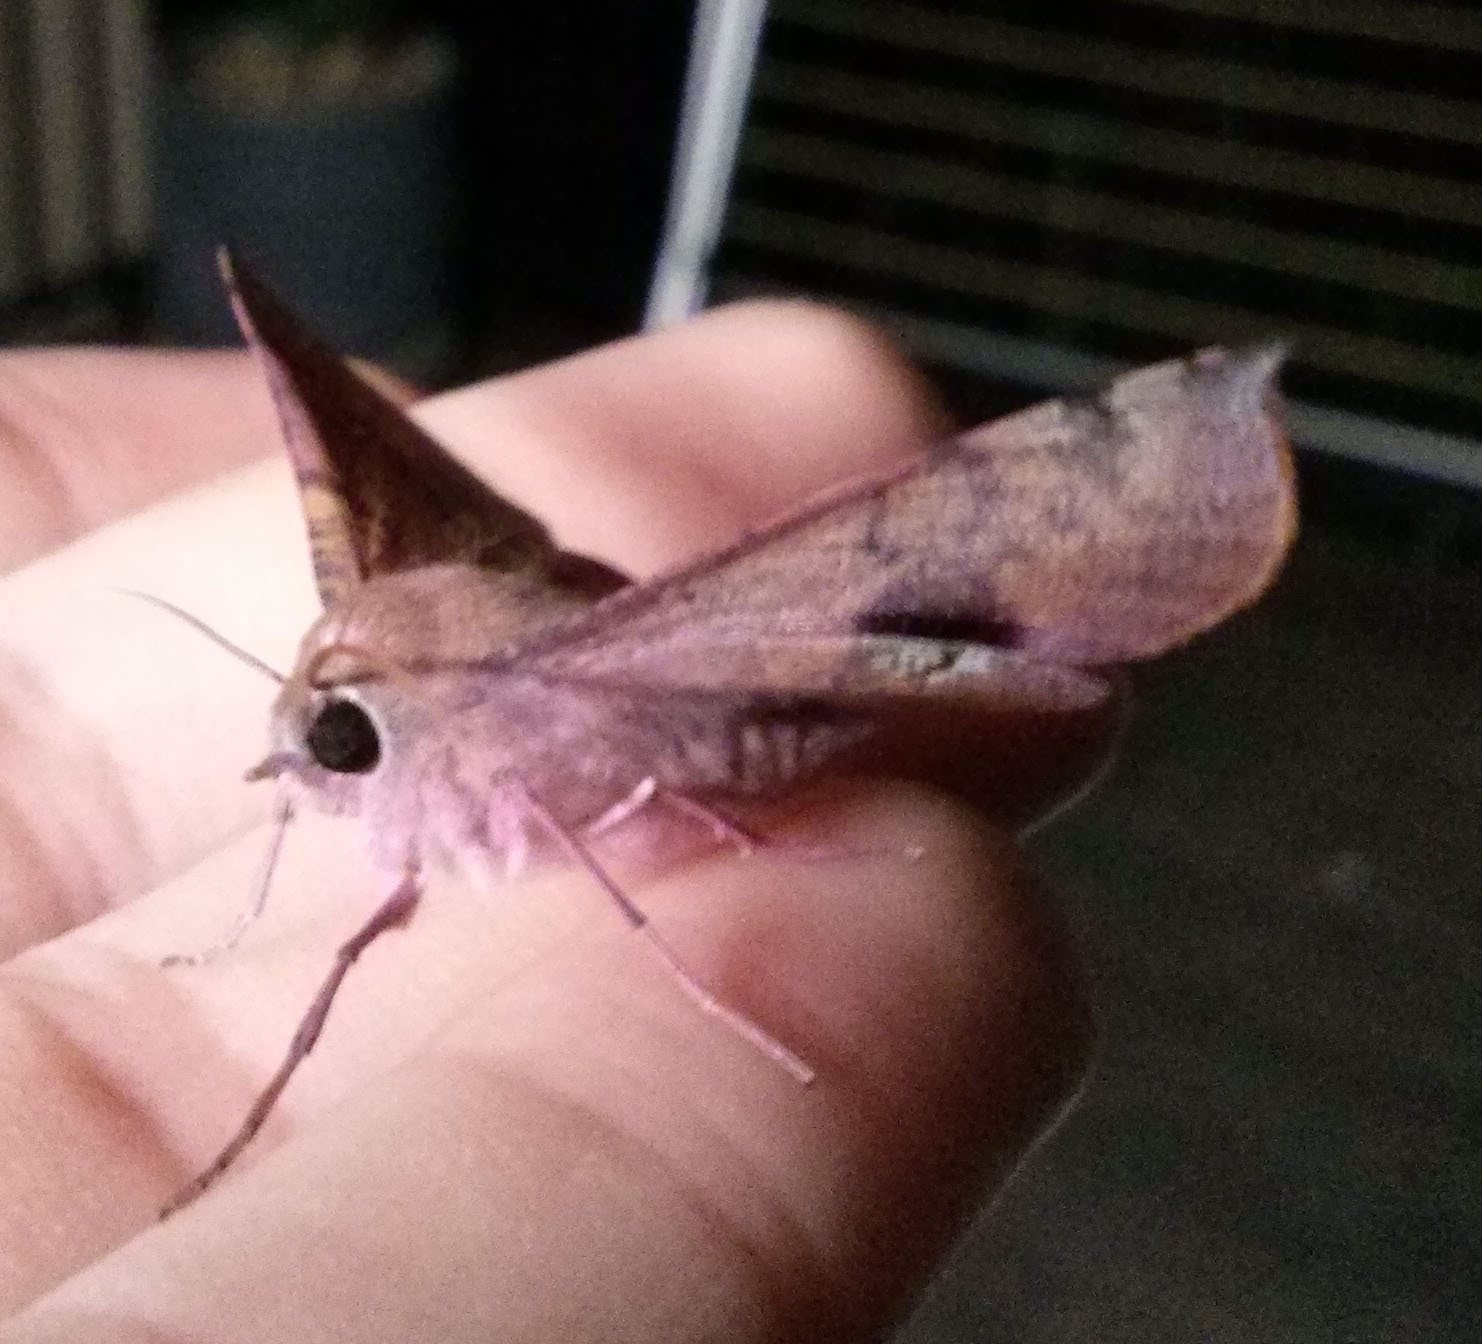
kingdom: Animalia
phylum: Arthropoda
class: Insecta
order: Lepidoptera
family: Geometridae
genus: Oenochroma
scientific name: Oenochroma vinaria
